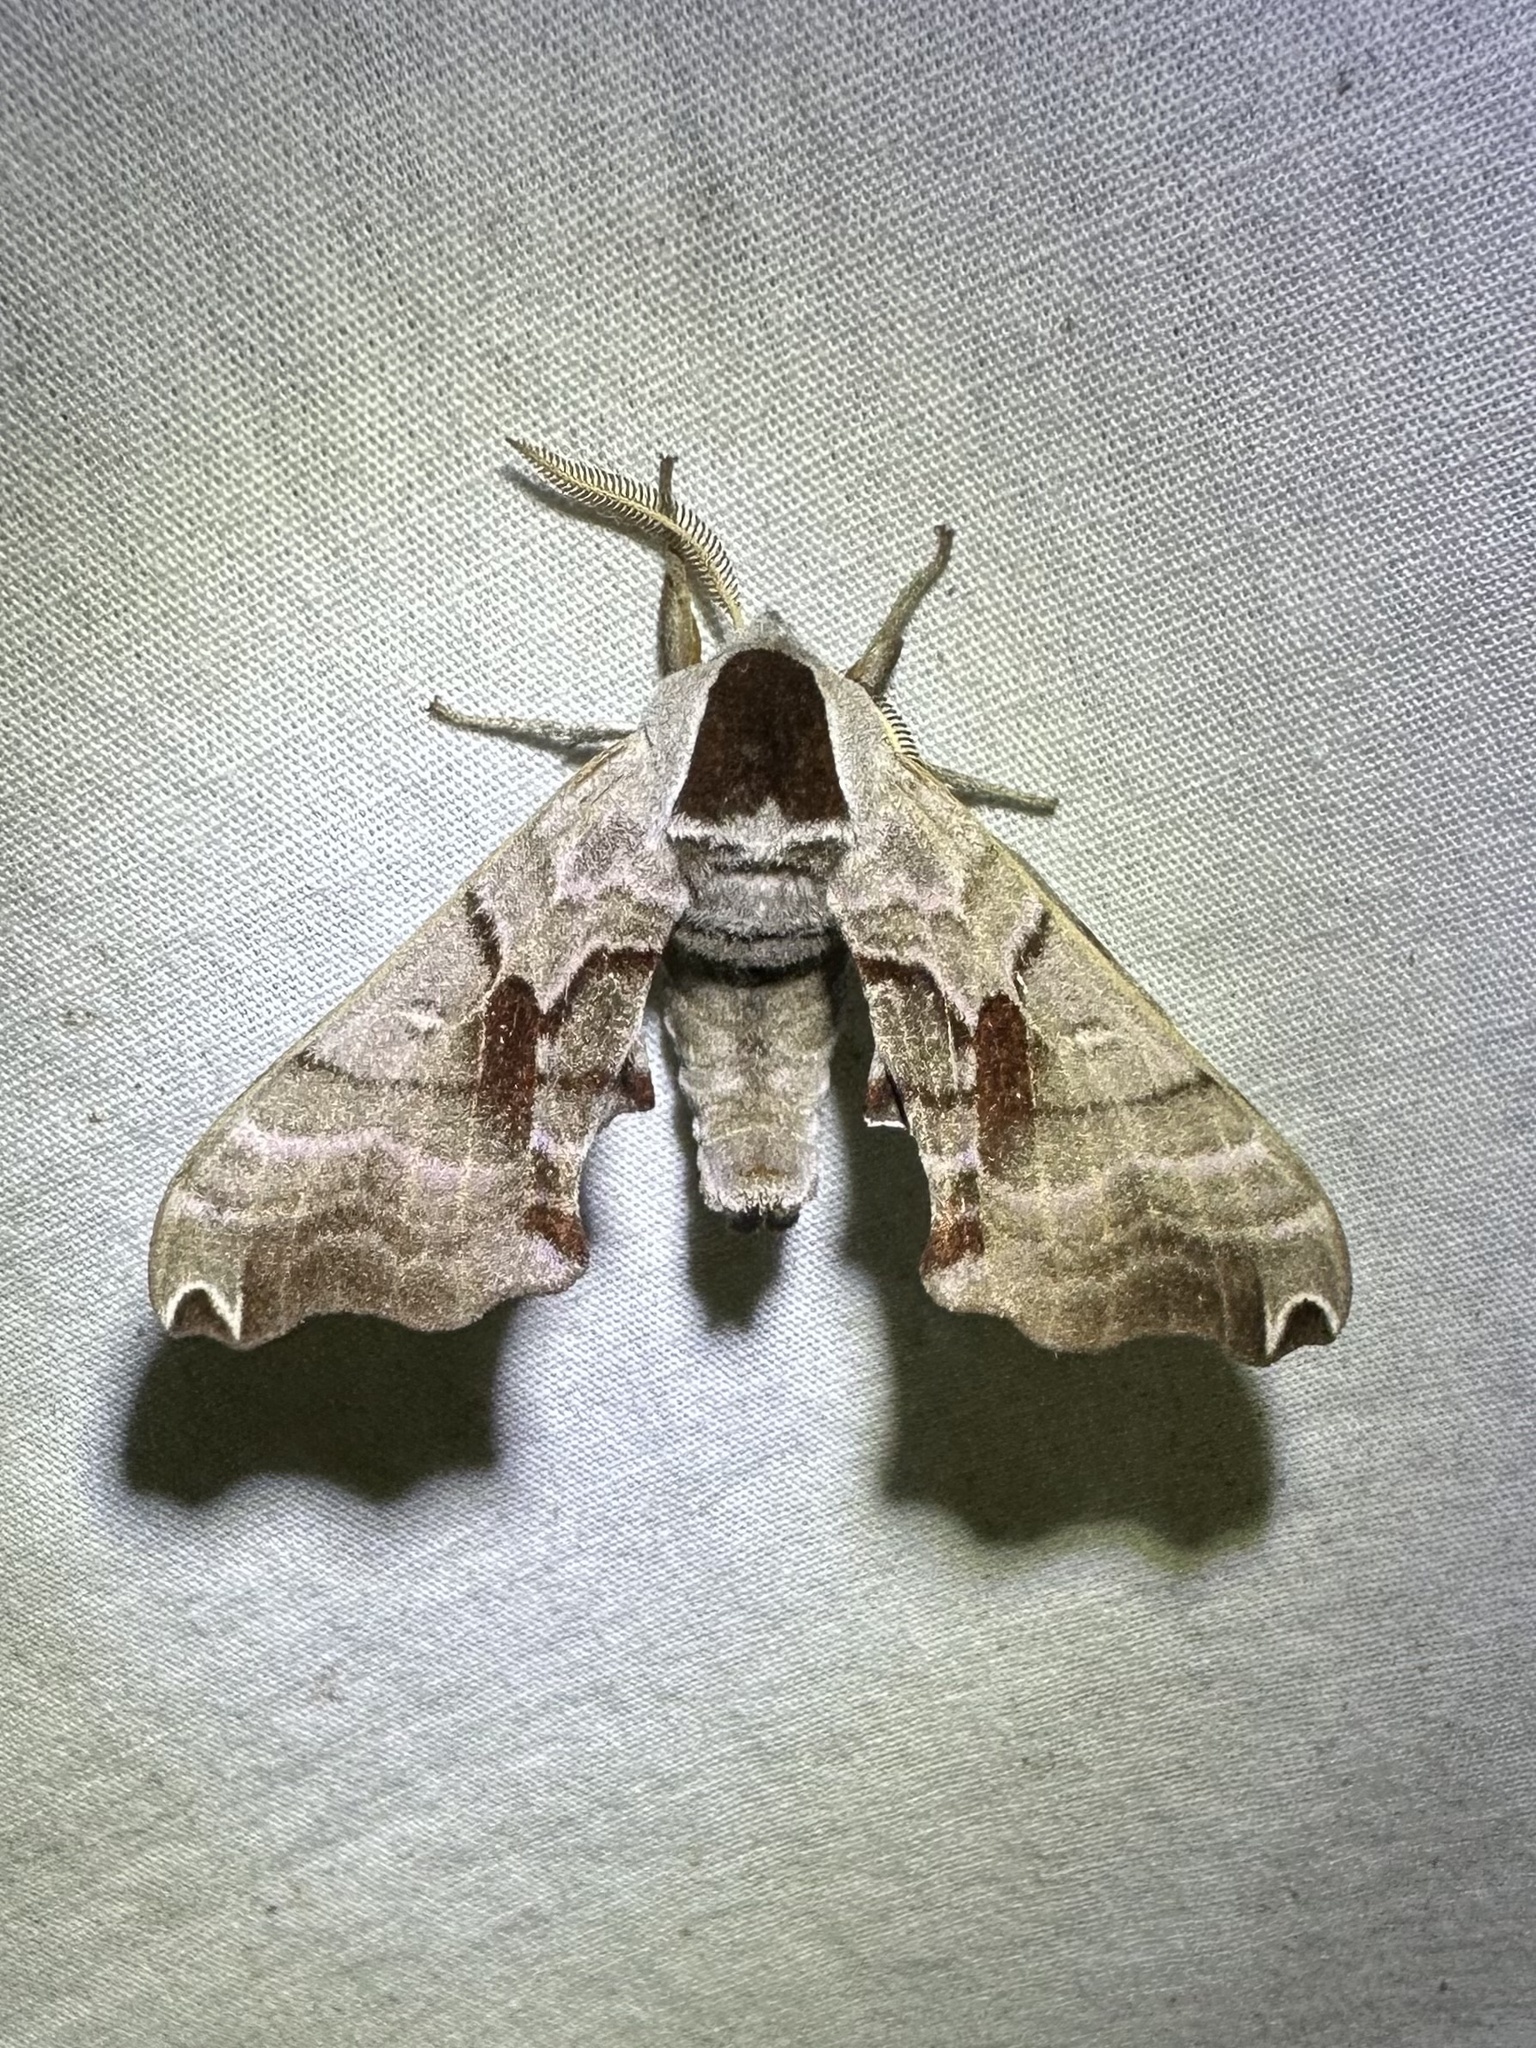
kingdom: Animalia
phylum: Arthropoda
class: Insecta
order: Lepidoptera
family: Sphingidae
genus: Smerinthus
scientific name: Smerinthus jamaicensis
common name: Twin spotted sphinx
